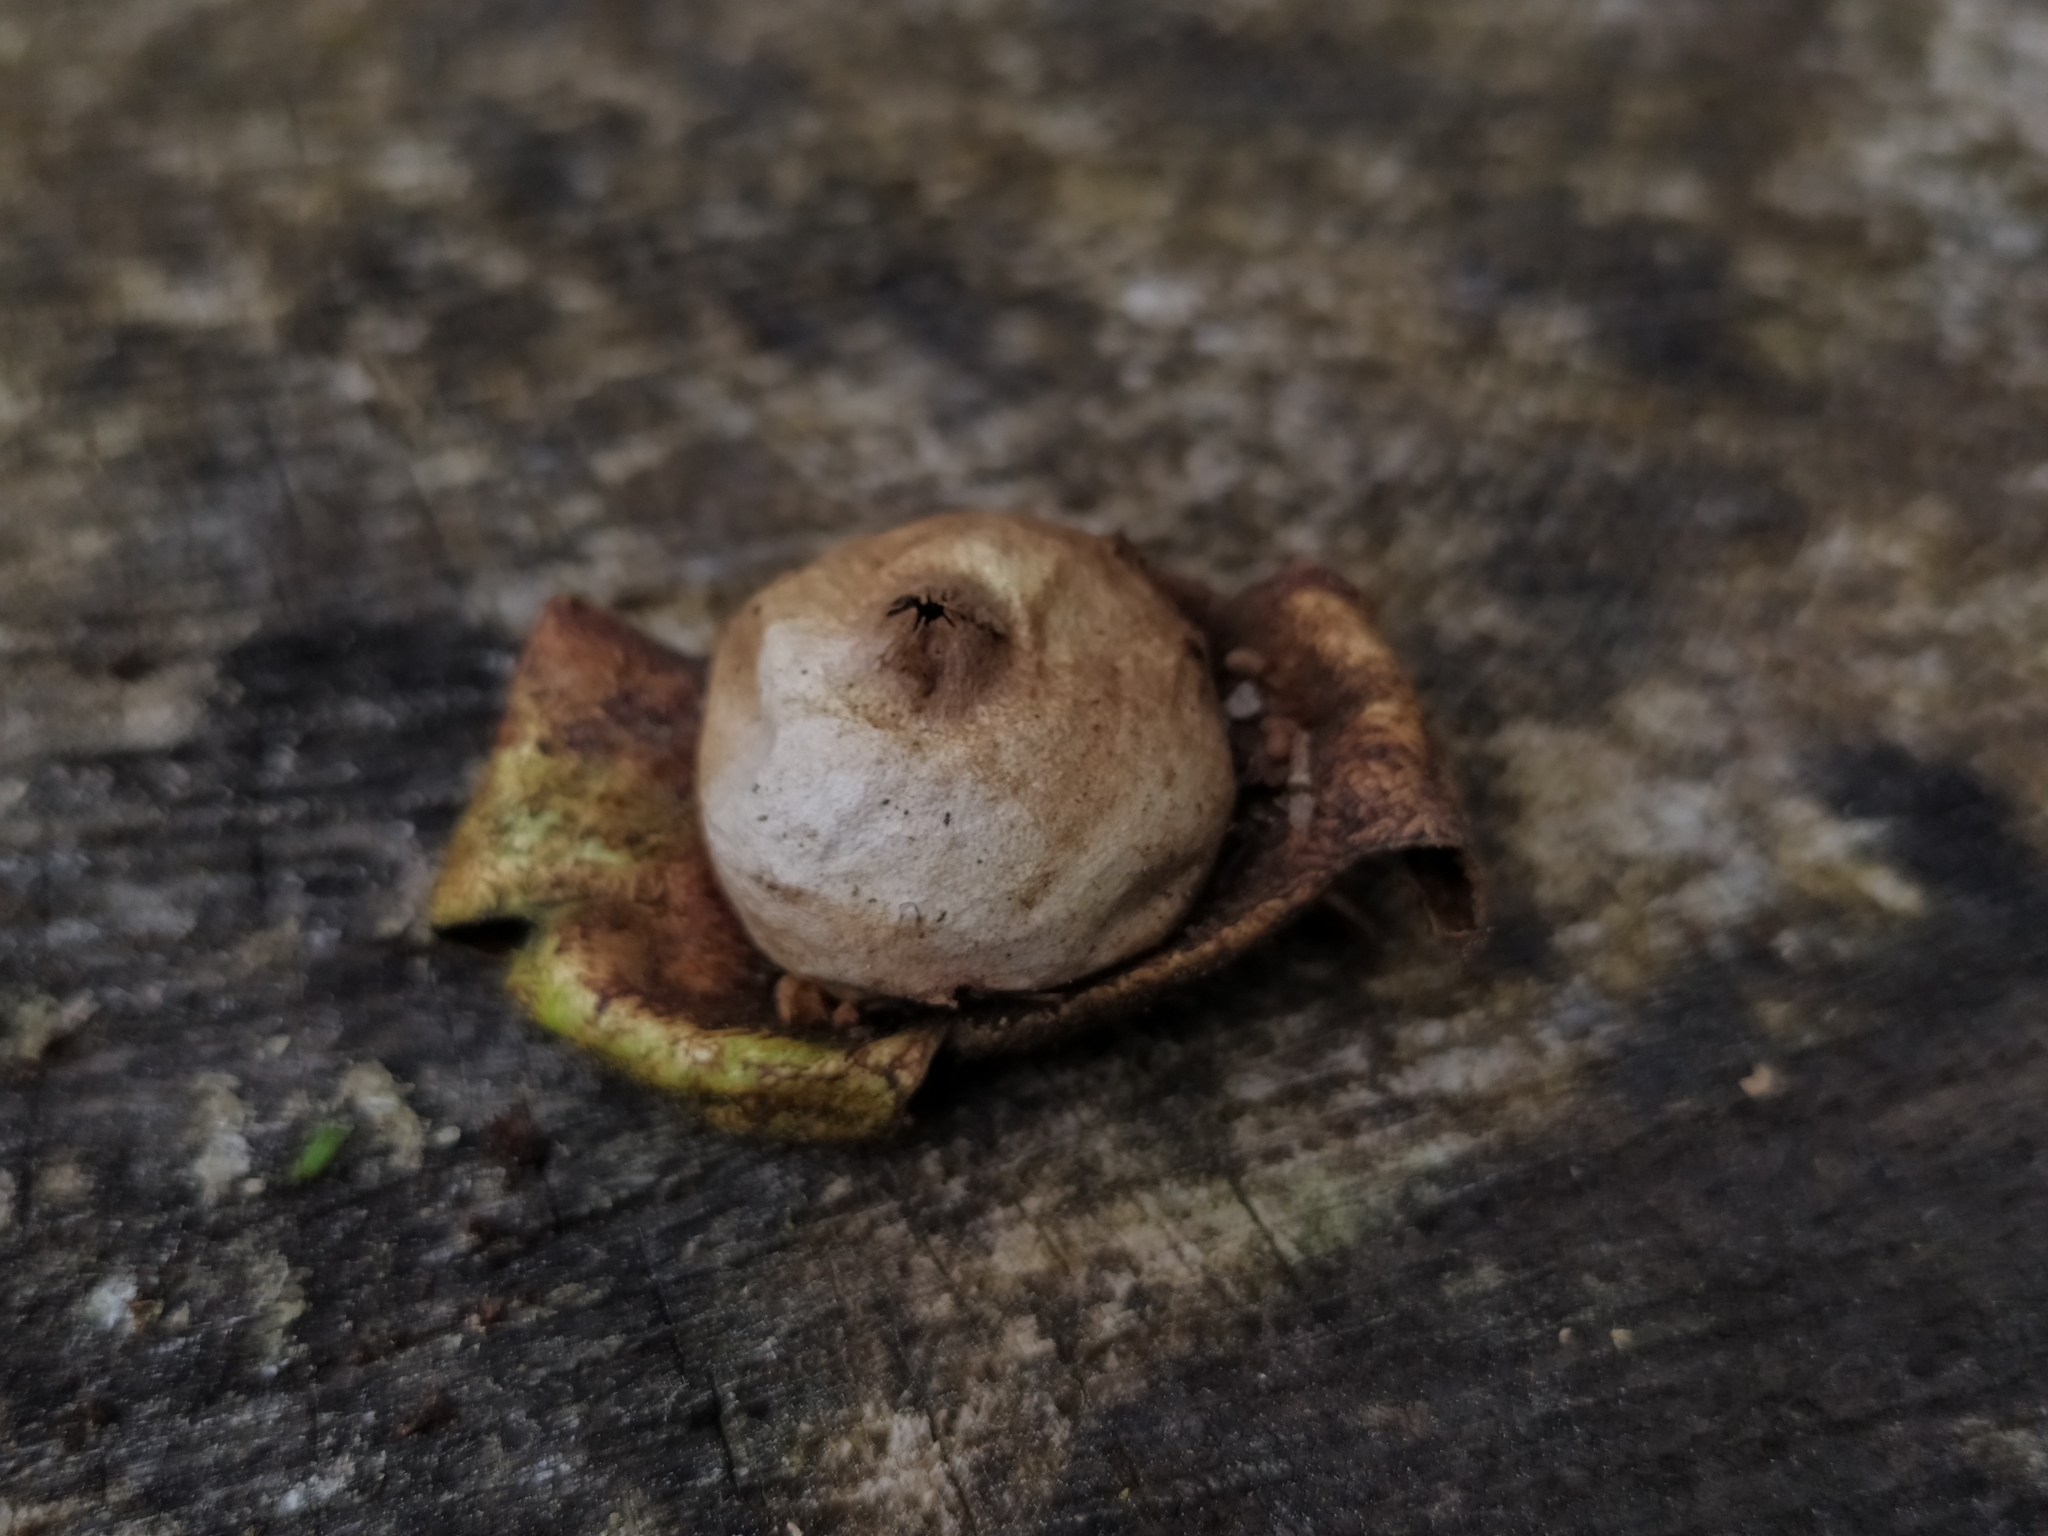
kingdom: Fungi
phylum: Basidiomycota
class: Agaricomycetes
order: Geastrales
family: Geastraceae
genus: Geastrum
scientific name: Geastrum fimbriatum
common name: Sessile earthstar
